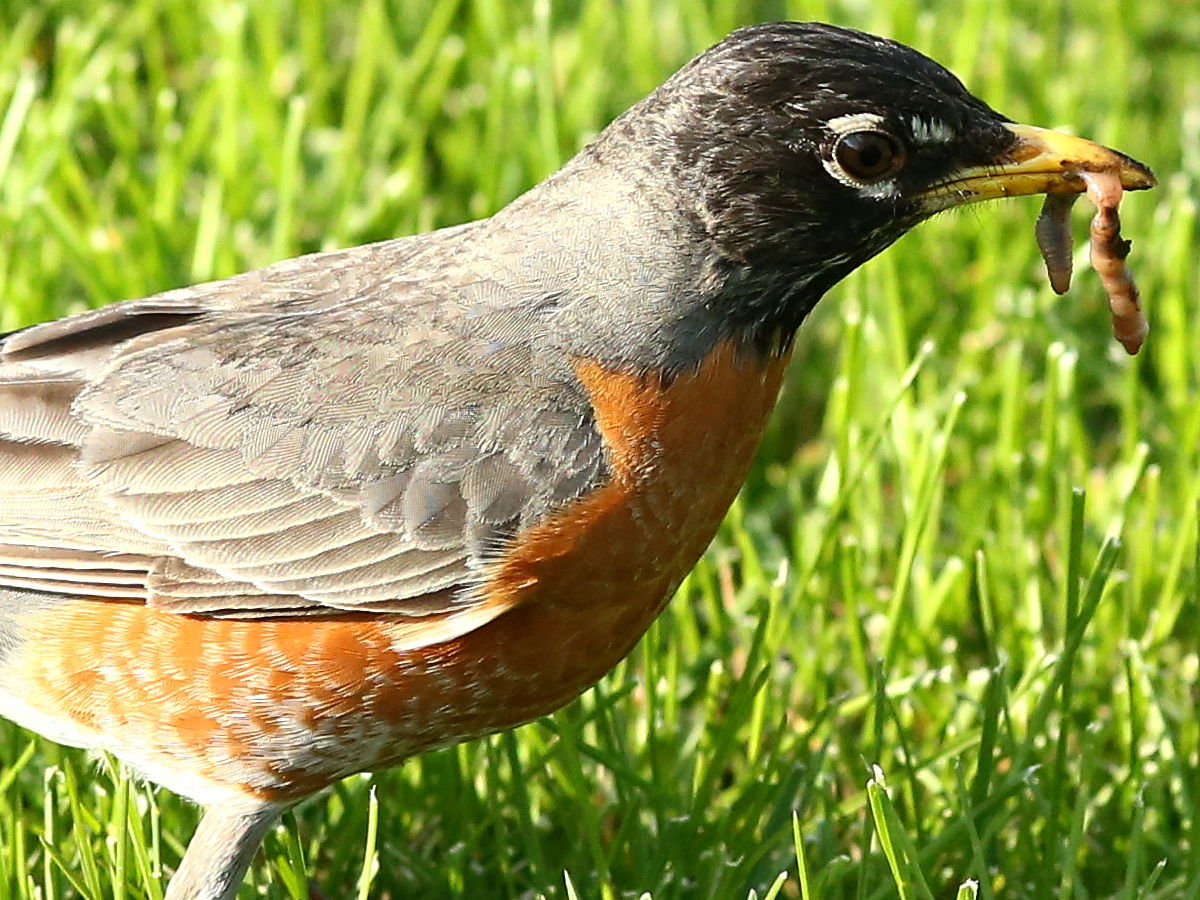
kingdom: Animalia
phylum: Chordata
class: Aves
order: Passeriformes
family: Turdidae
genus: Turdus
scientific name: Turdus migratorius
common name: American robin
